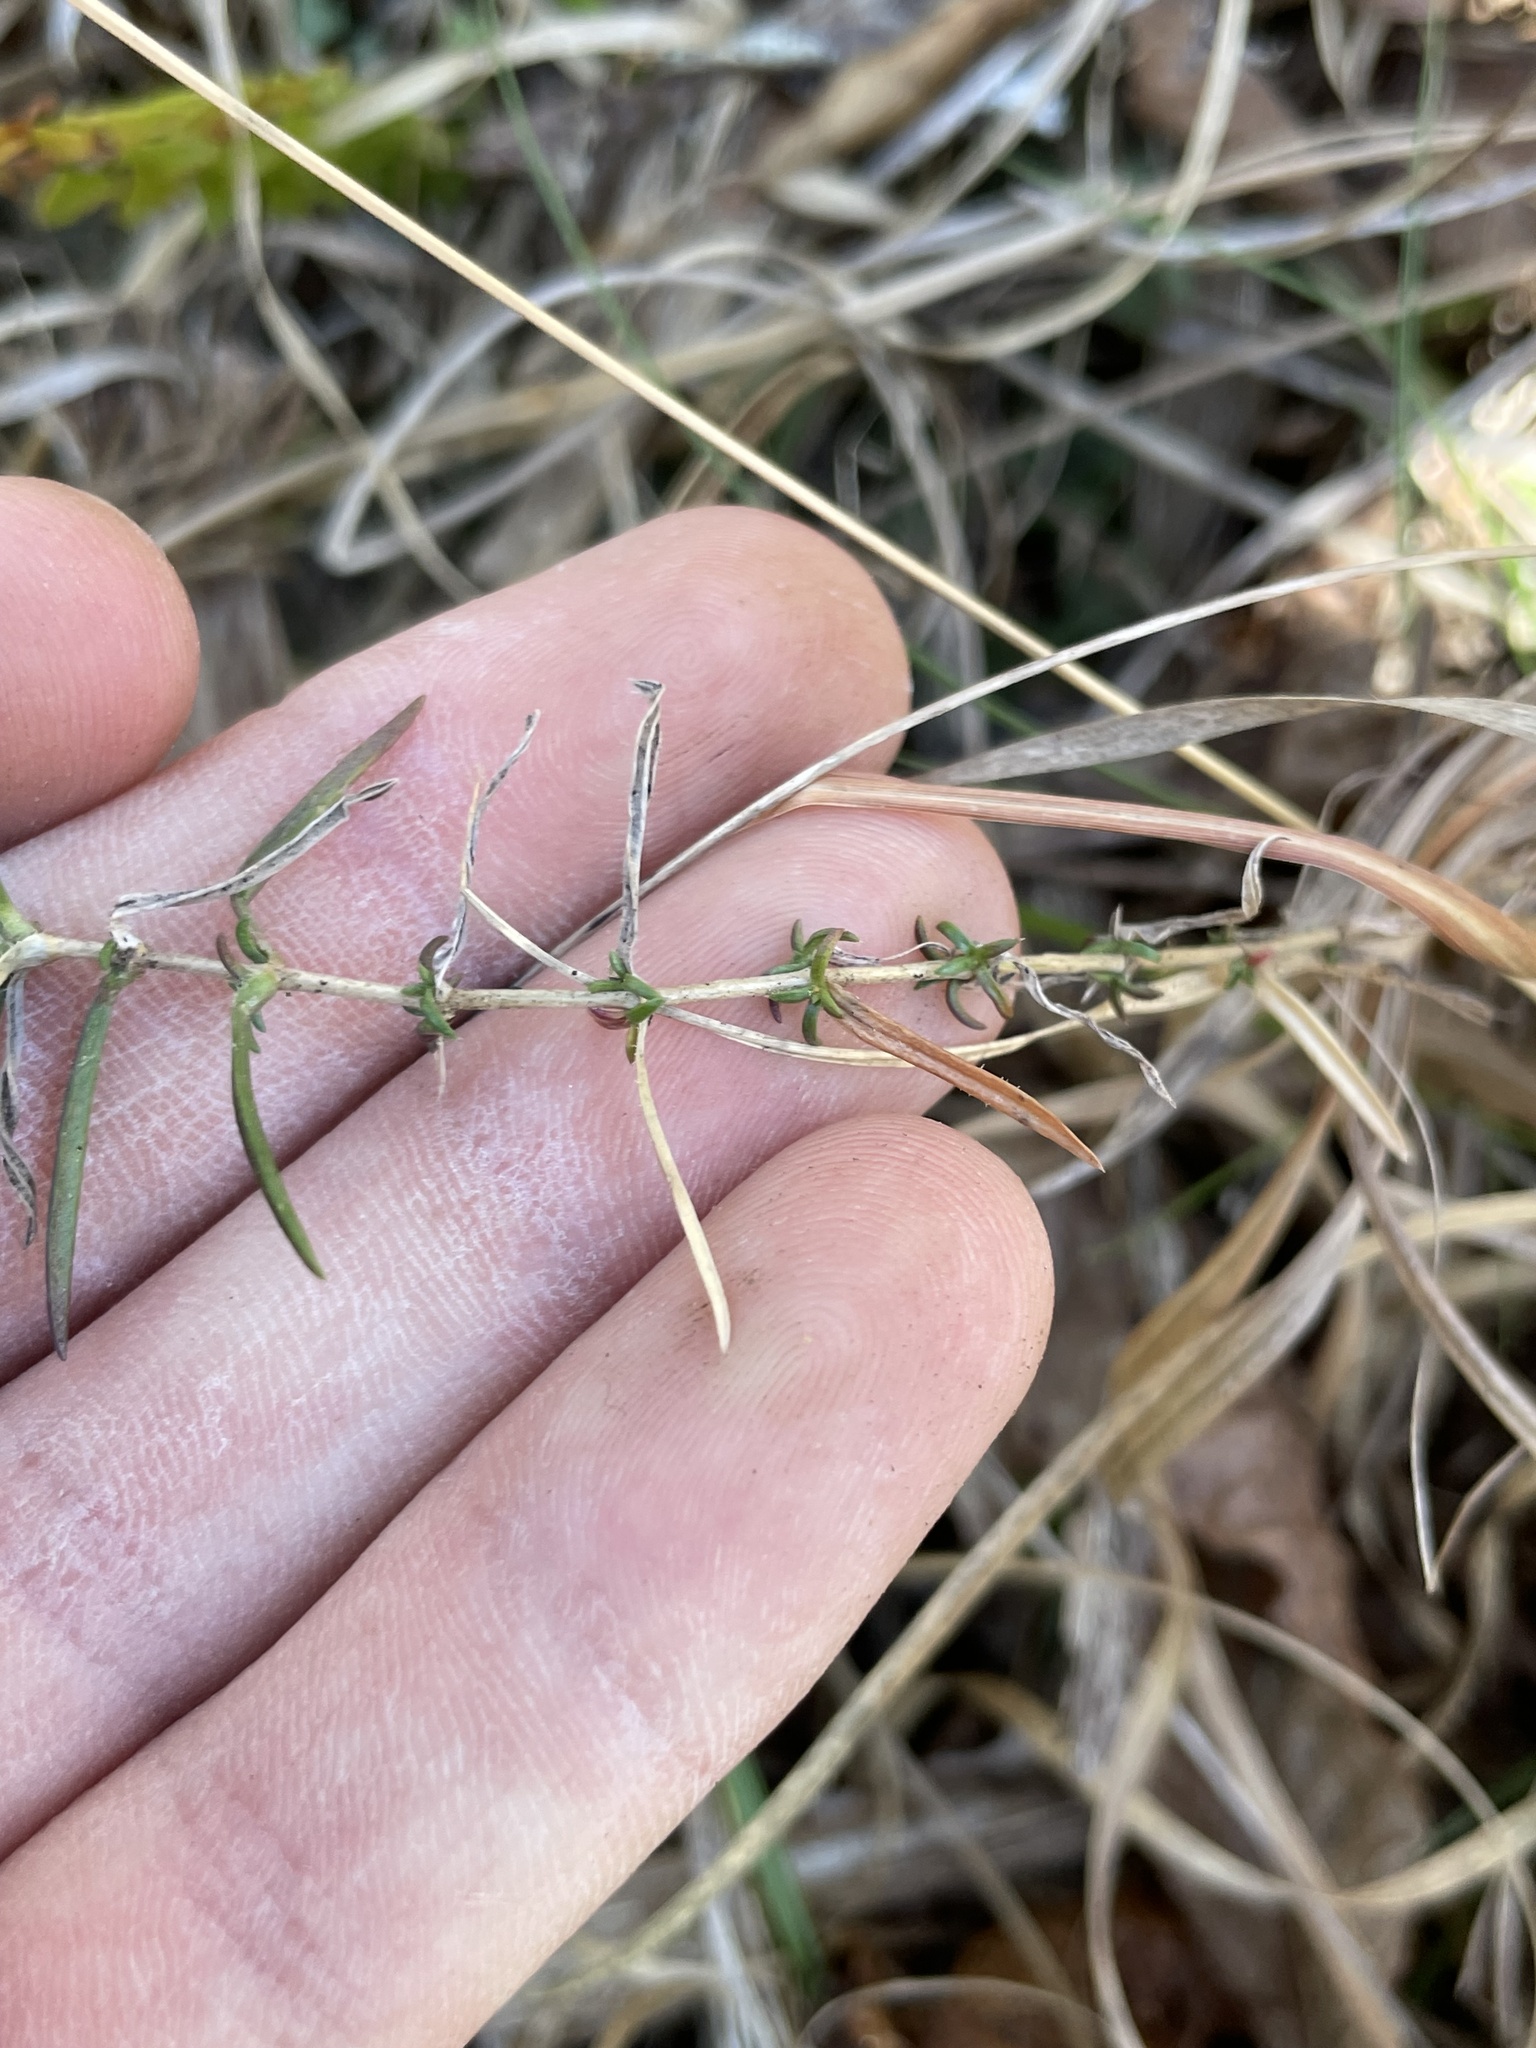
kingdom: Plantae
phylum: Tracheophyta
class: Magnoliopsida
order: Ericales
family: Polemoniaceae
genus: Phlox
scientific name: Phlox nivalis
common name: Trailing phlox
